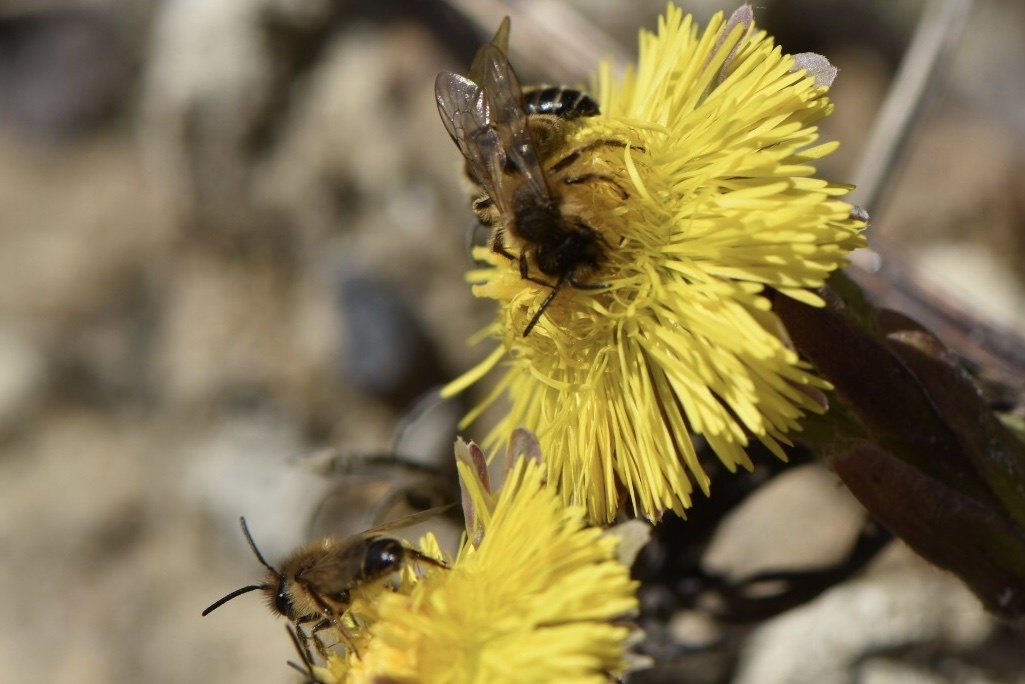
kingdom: Animalia
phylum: Arthropoda
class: Insecta
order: Hymenoptera
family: Andrenidae
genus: Andrena
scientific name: Andrena flavipes
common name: Yellow-legged mining bee
